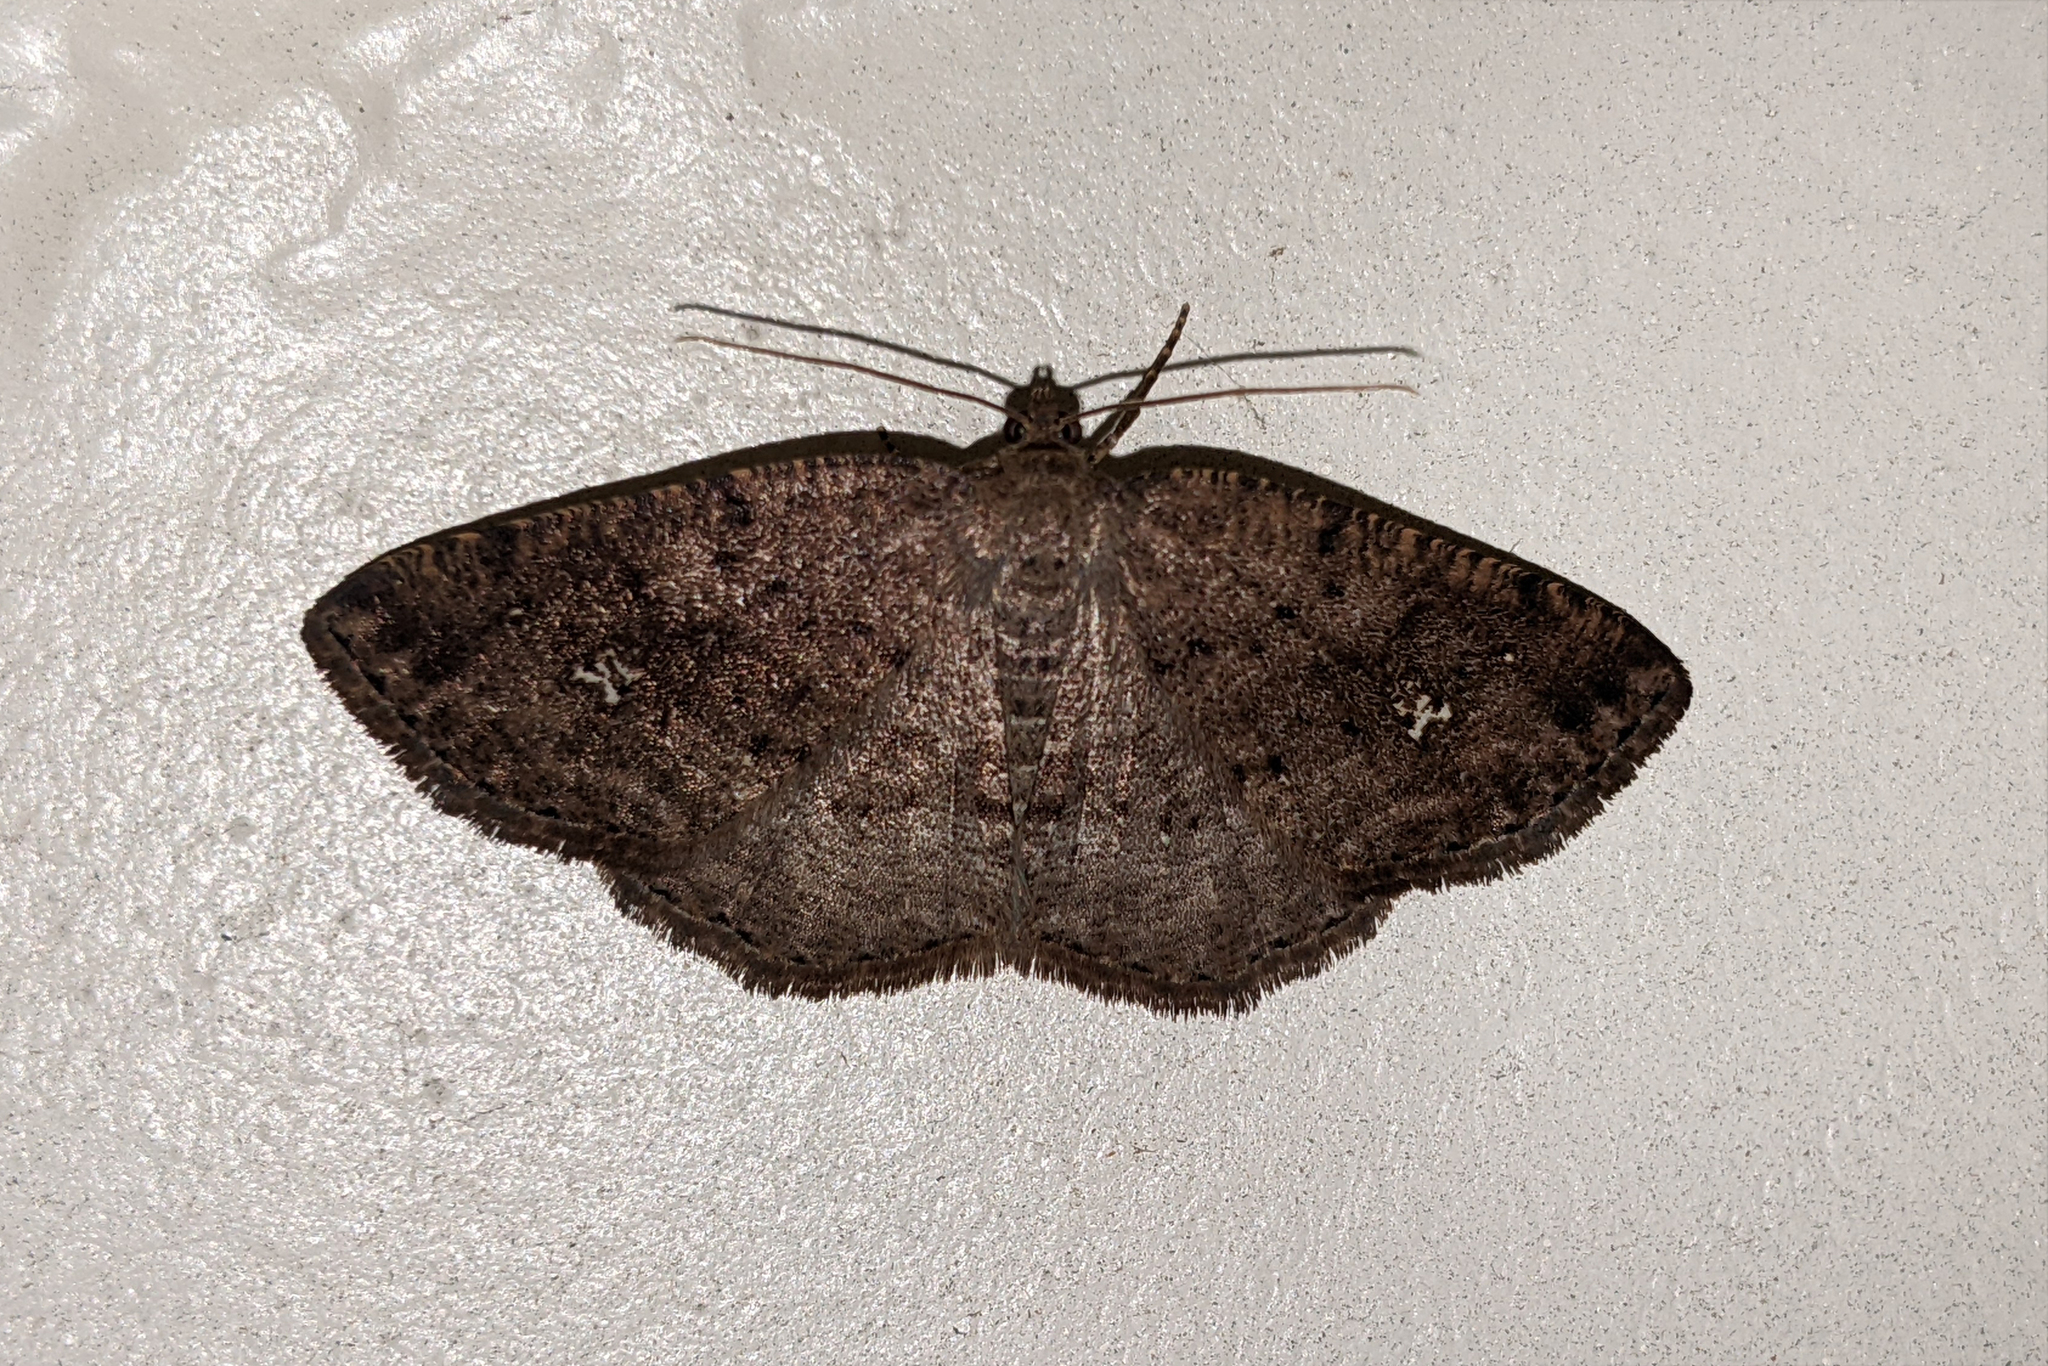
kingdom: Animalia
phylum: Arthropoda
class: Insecta
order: Lepidoptera
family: Geometridae
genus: Homochlodes
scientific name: Homochlodes fritillaria
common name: Pale homochlodes
